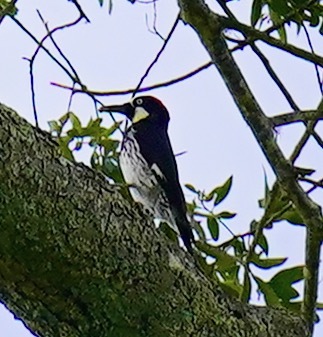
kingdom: Animalia
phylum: Chordata
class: Aves
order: Piciformes
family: Picidae
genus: Melanerpes
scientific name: Melanerpes formicivorus
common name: Acorn woodpecker
